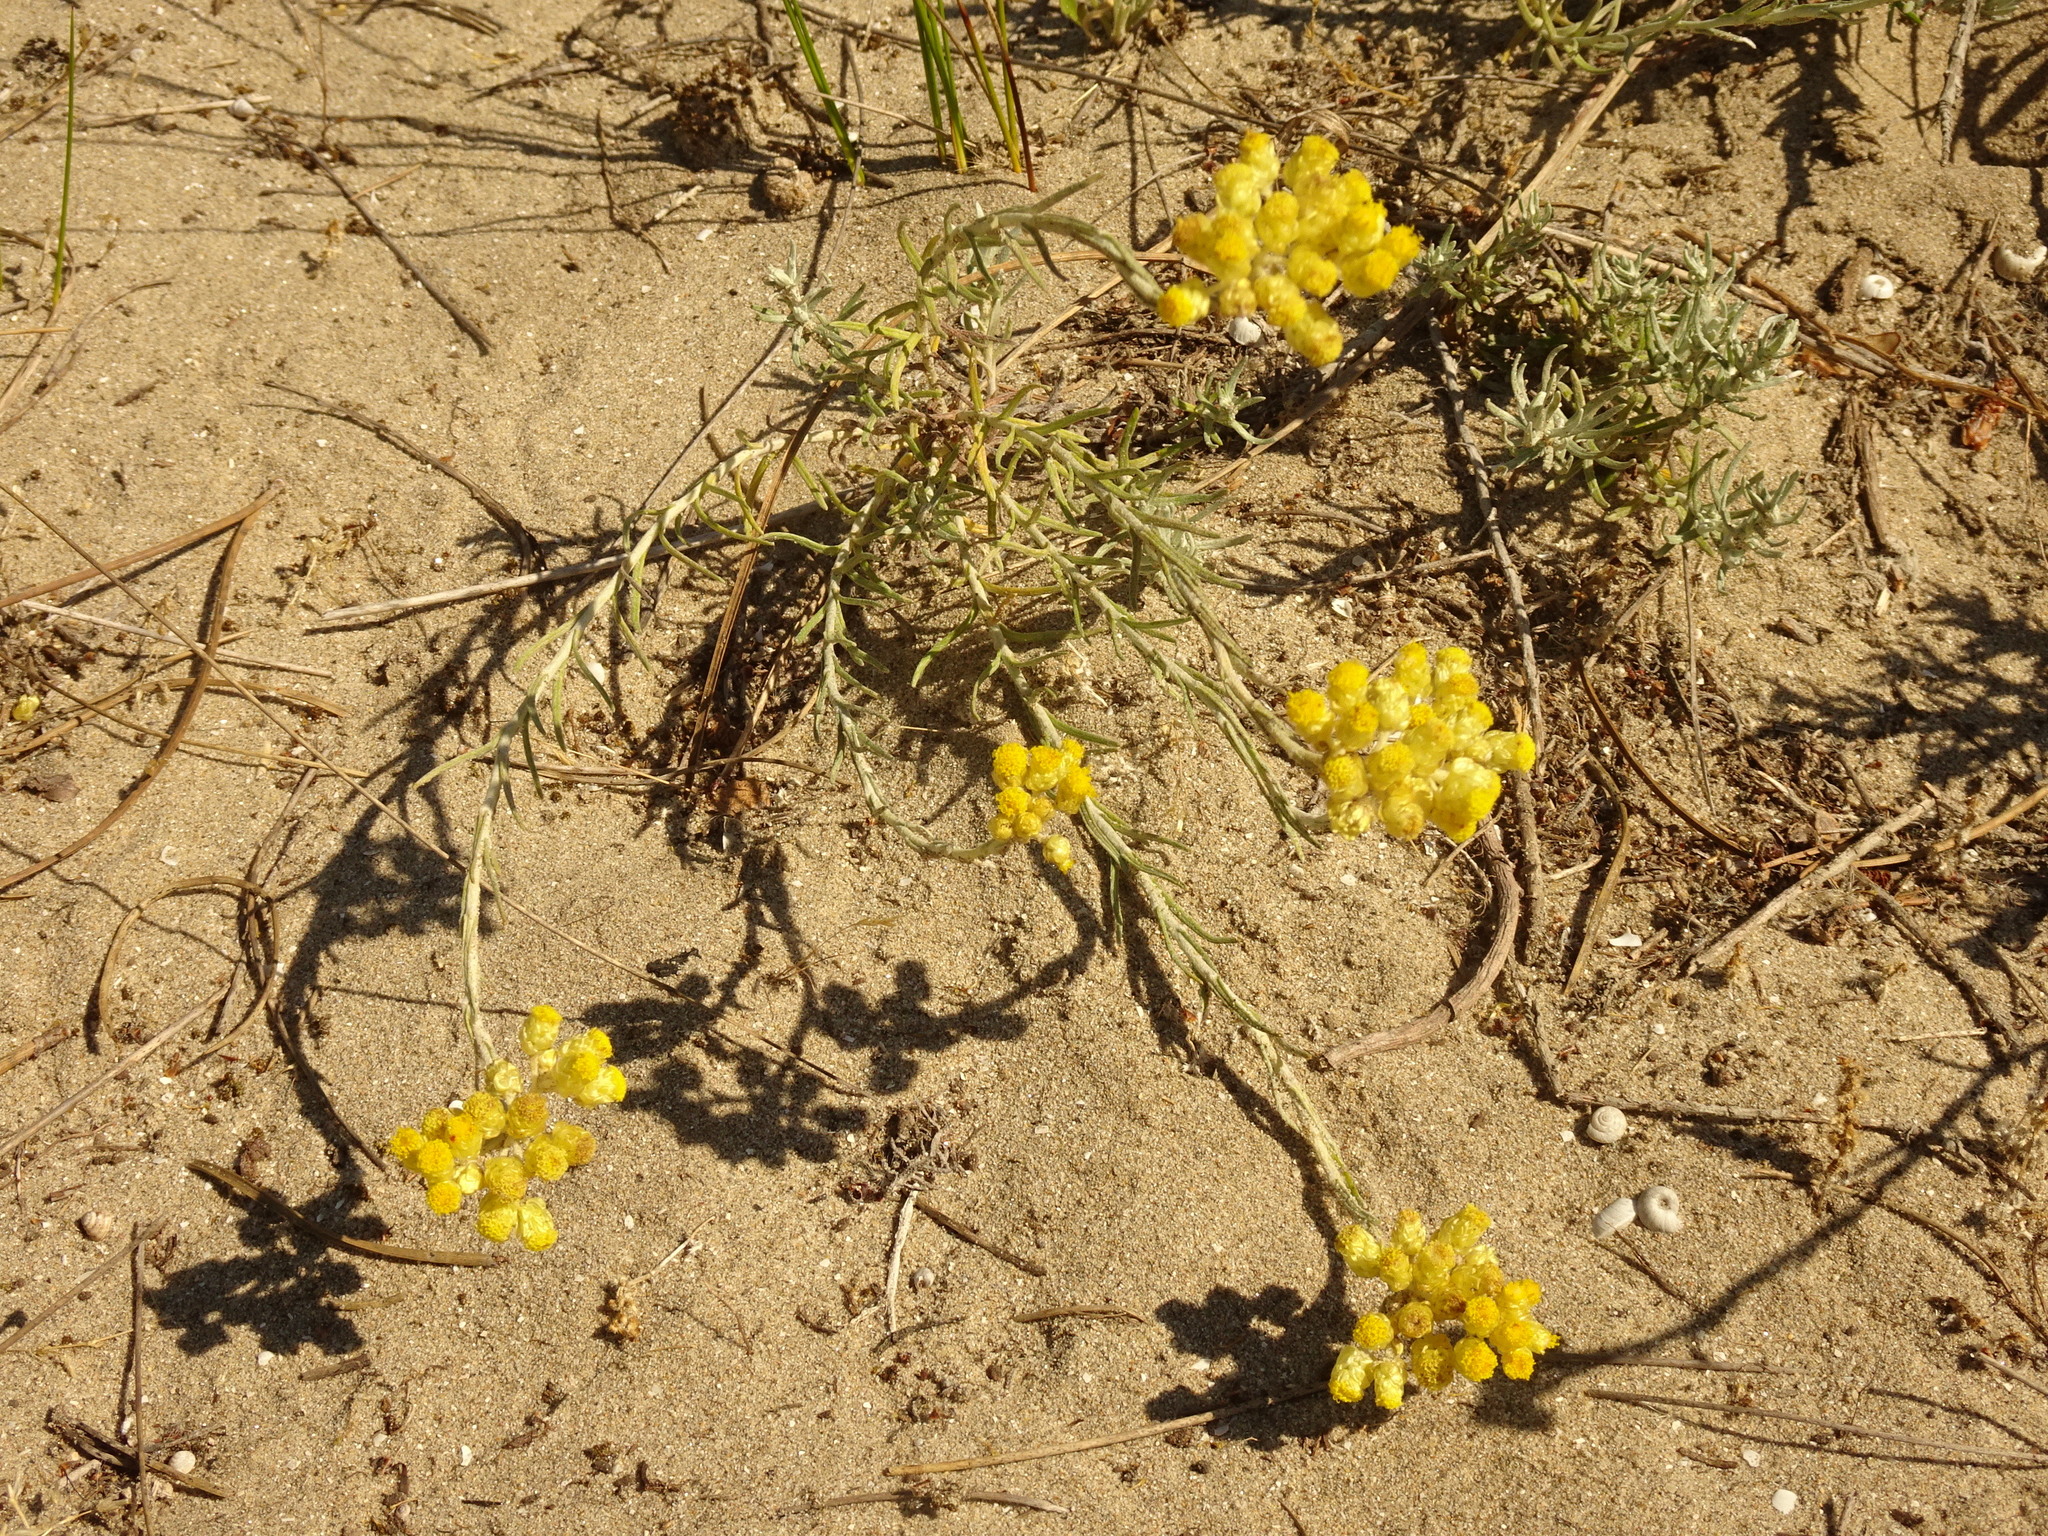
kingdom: Plantae
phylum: Tracheophyta
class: Magnoliopsida
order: Asterales
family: Asteraceae
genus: Helichrysum
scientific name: Helichrysum stoechas
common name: Goldilocks
